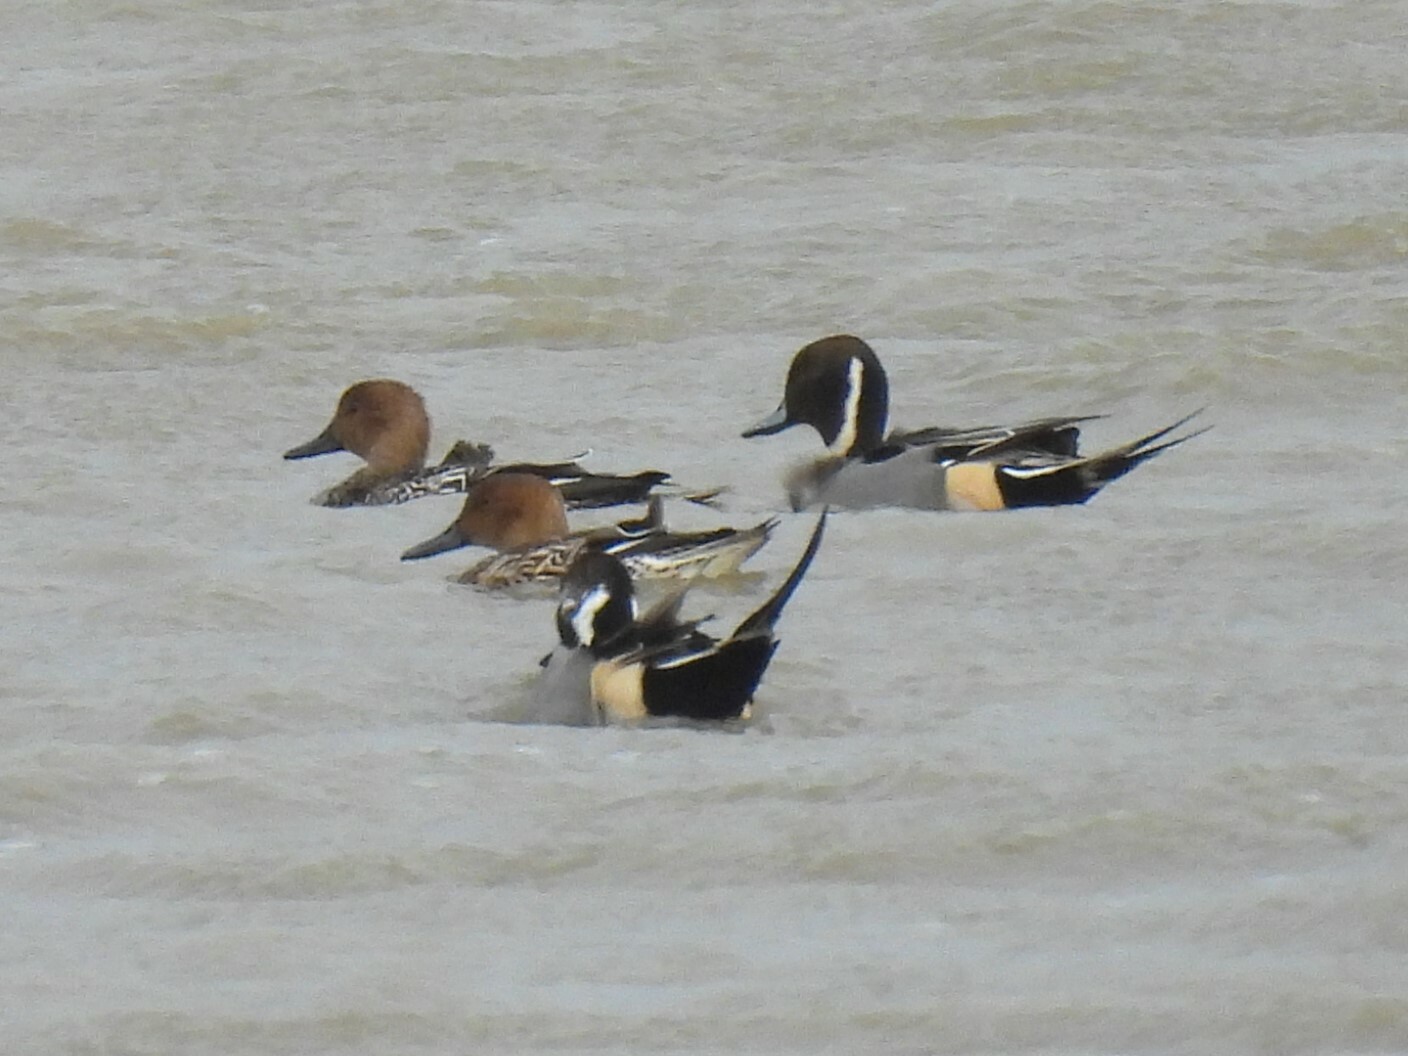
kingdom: Animalia
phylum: Chordata
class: Aves
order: Anseriformes
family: Anatidae
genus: Anas
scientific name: Anas acuta
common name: Northern pintail
